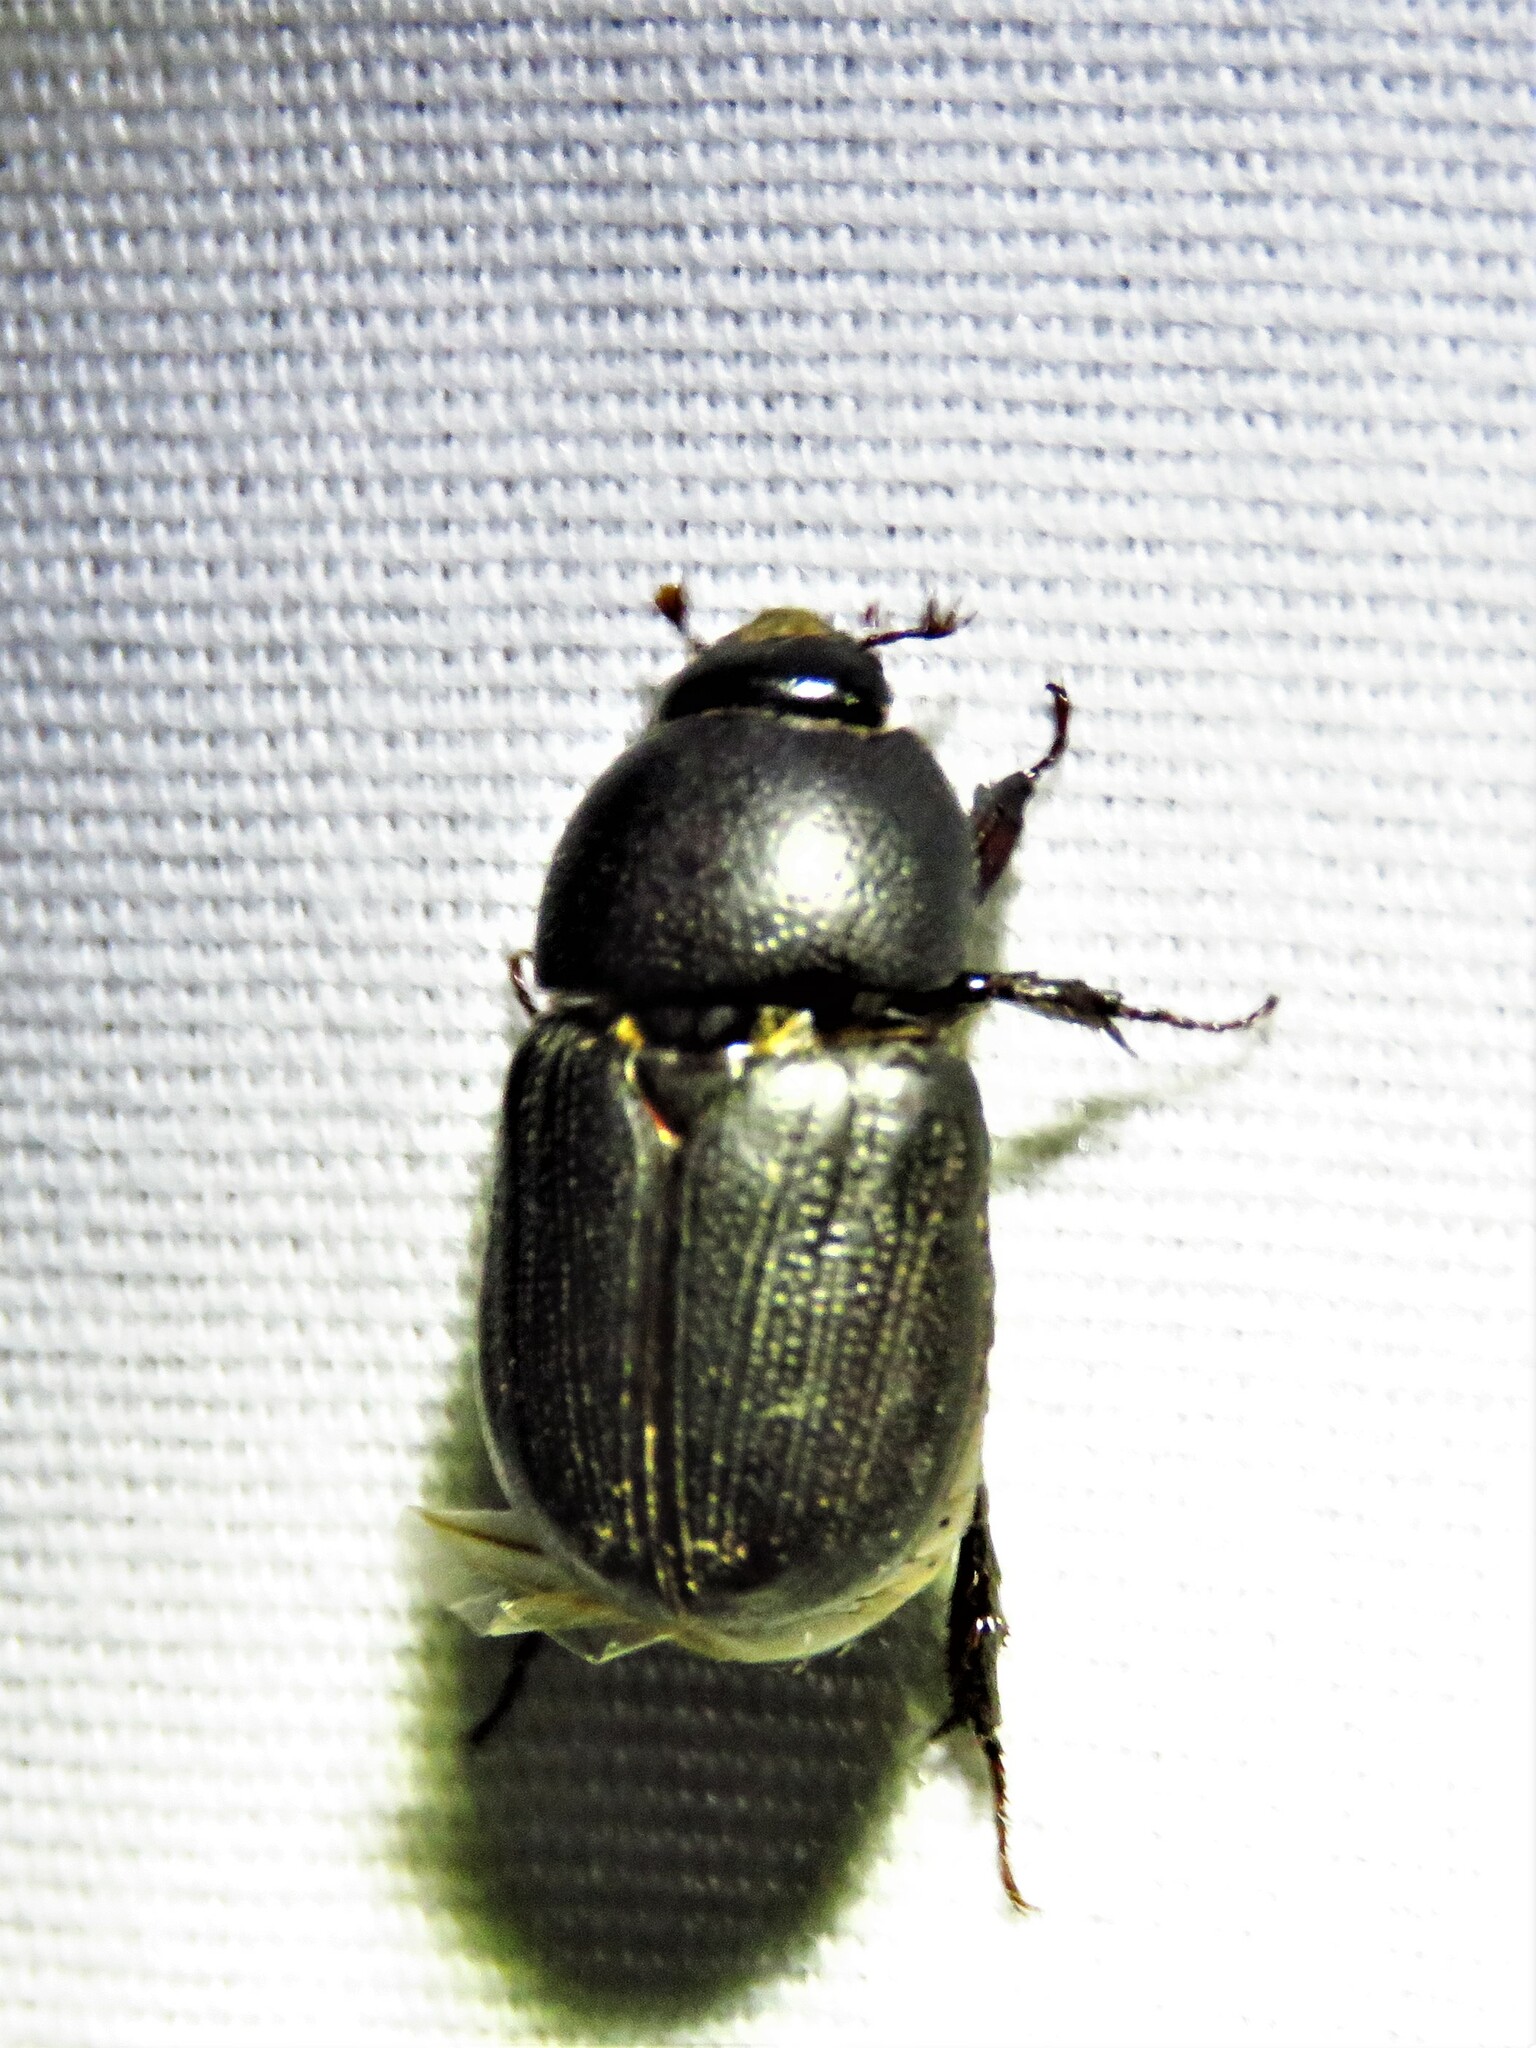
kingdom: Animalia
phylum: Arthropoda
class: Insecta
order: Coleoptera
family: Scarabaeidae
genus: Euetheola
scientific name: Euetheola humilis
